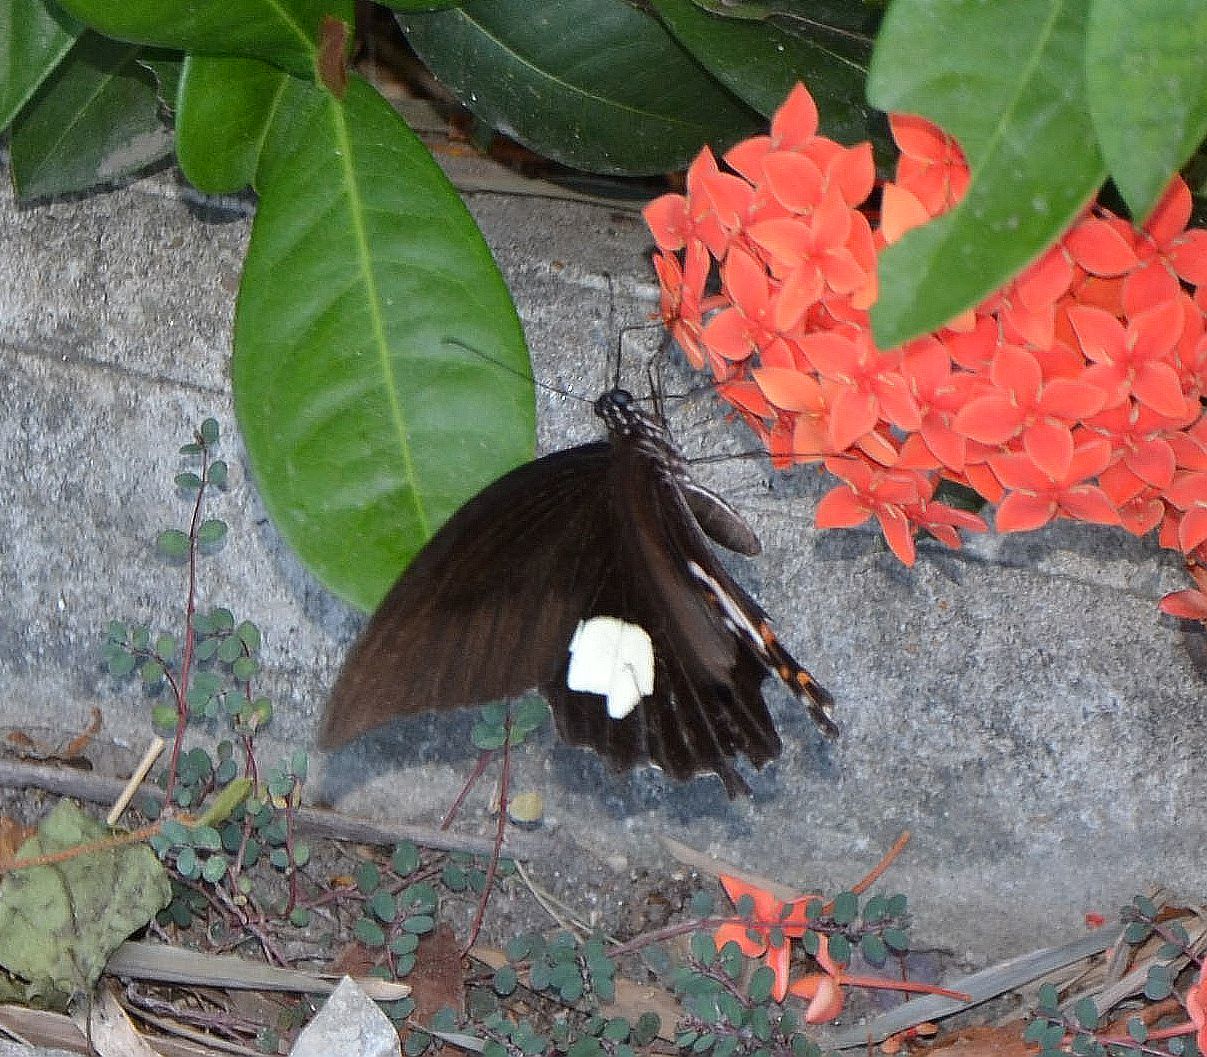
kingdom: Animalia
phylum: Arthropoda
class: Insecta
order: Lepidoptera
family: Papilionidae
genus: Papilio
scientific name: Papilio helenus
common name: Red helen
